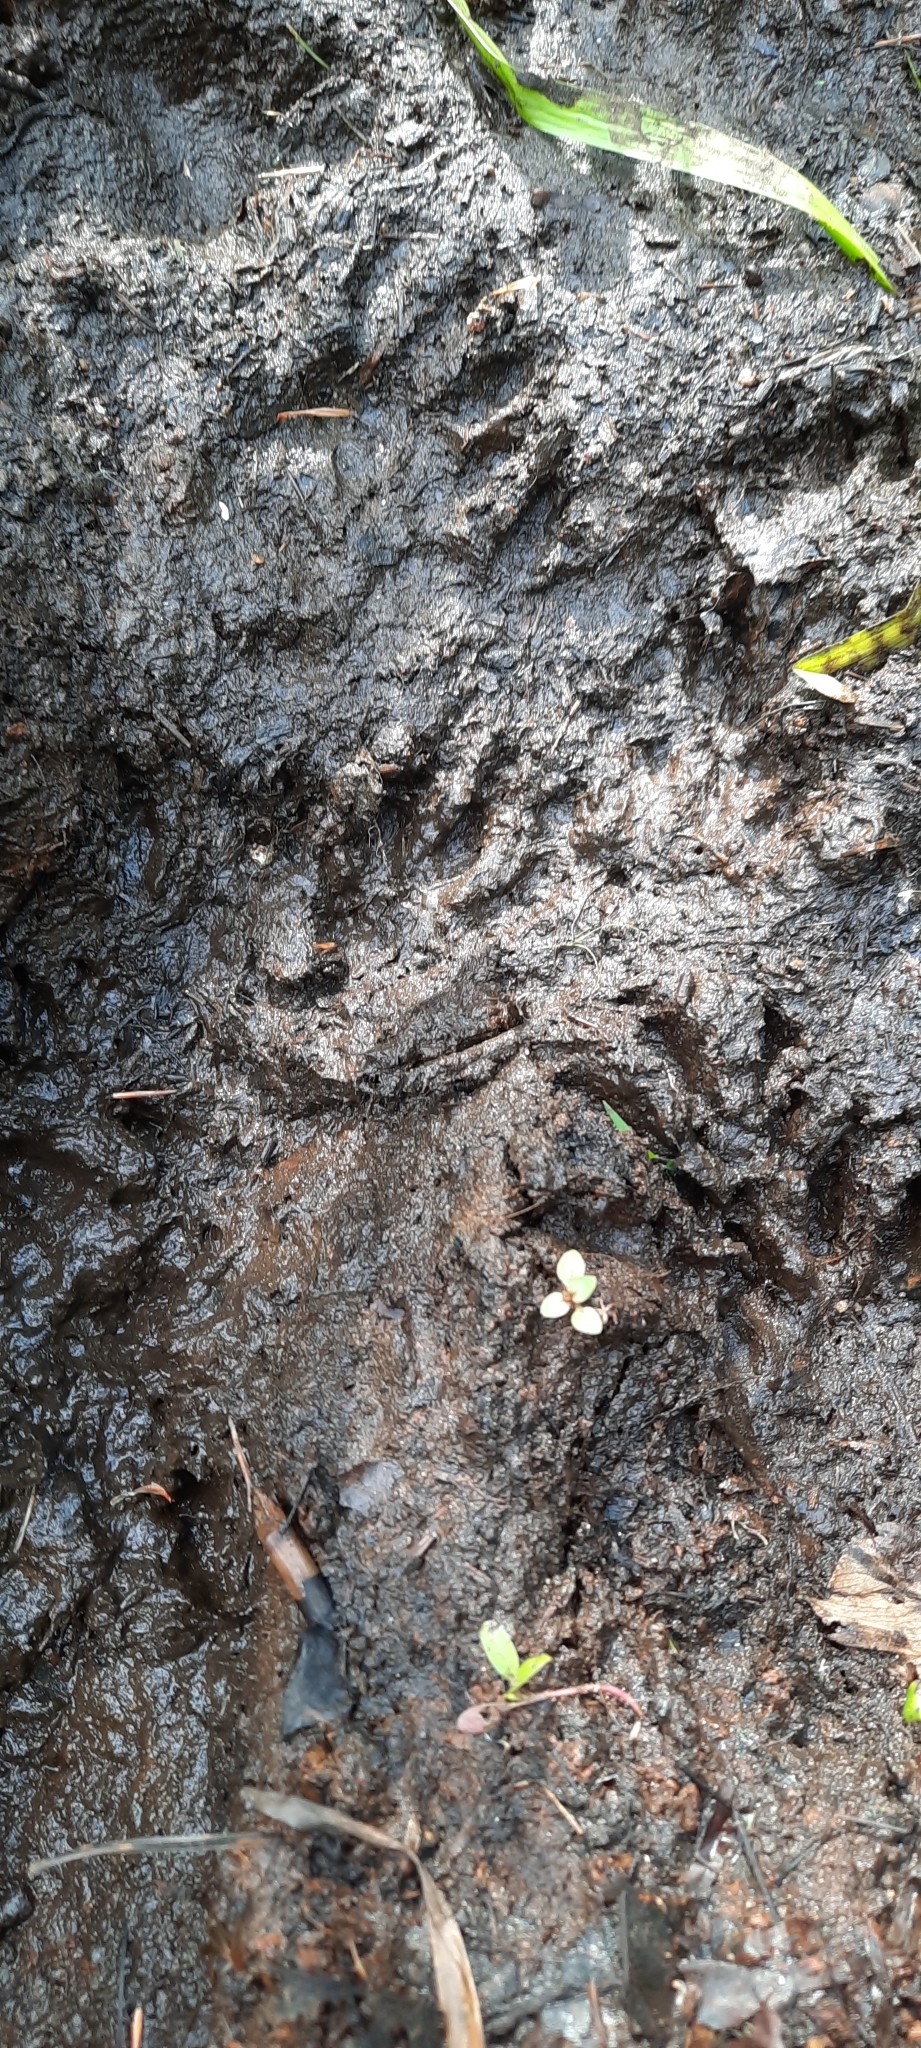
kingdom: Animalia
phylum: Chordata
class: Mammalia
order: Carnivora
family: Procyonidae
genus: Procyon
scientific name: Procyon lotor
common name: Raccoon
